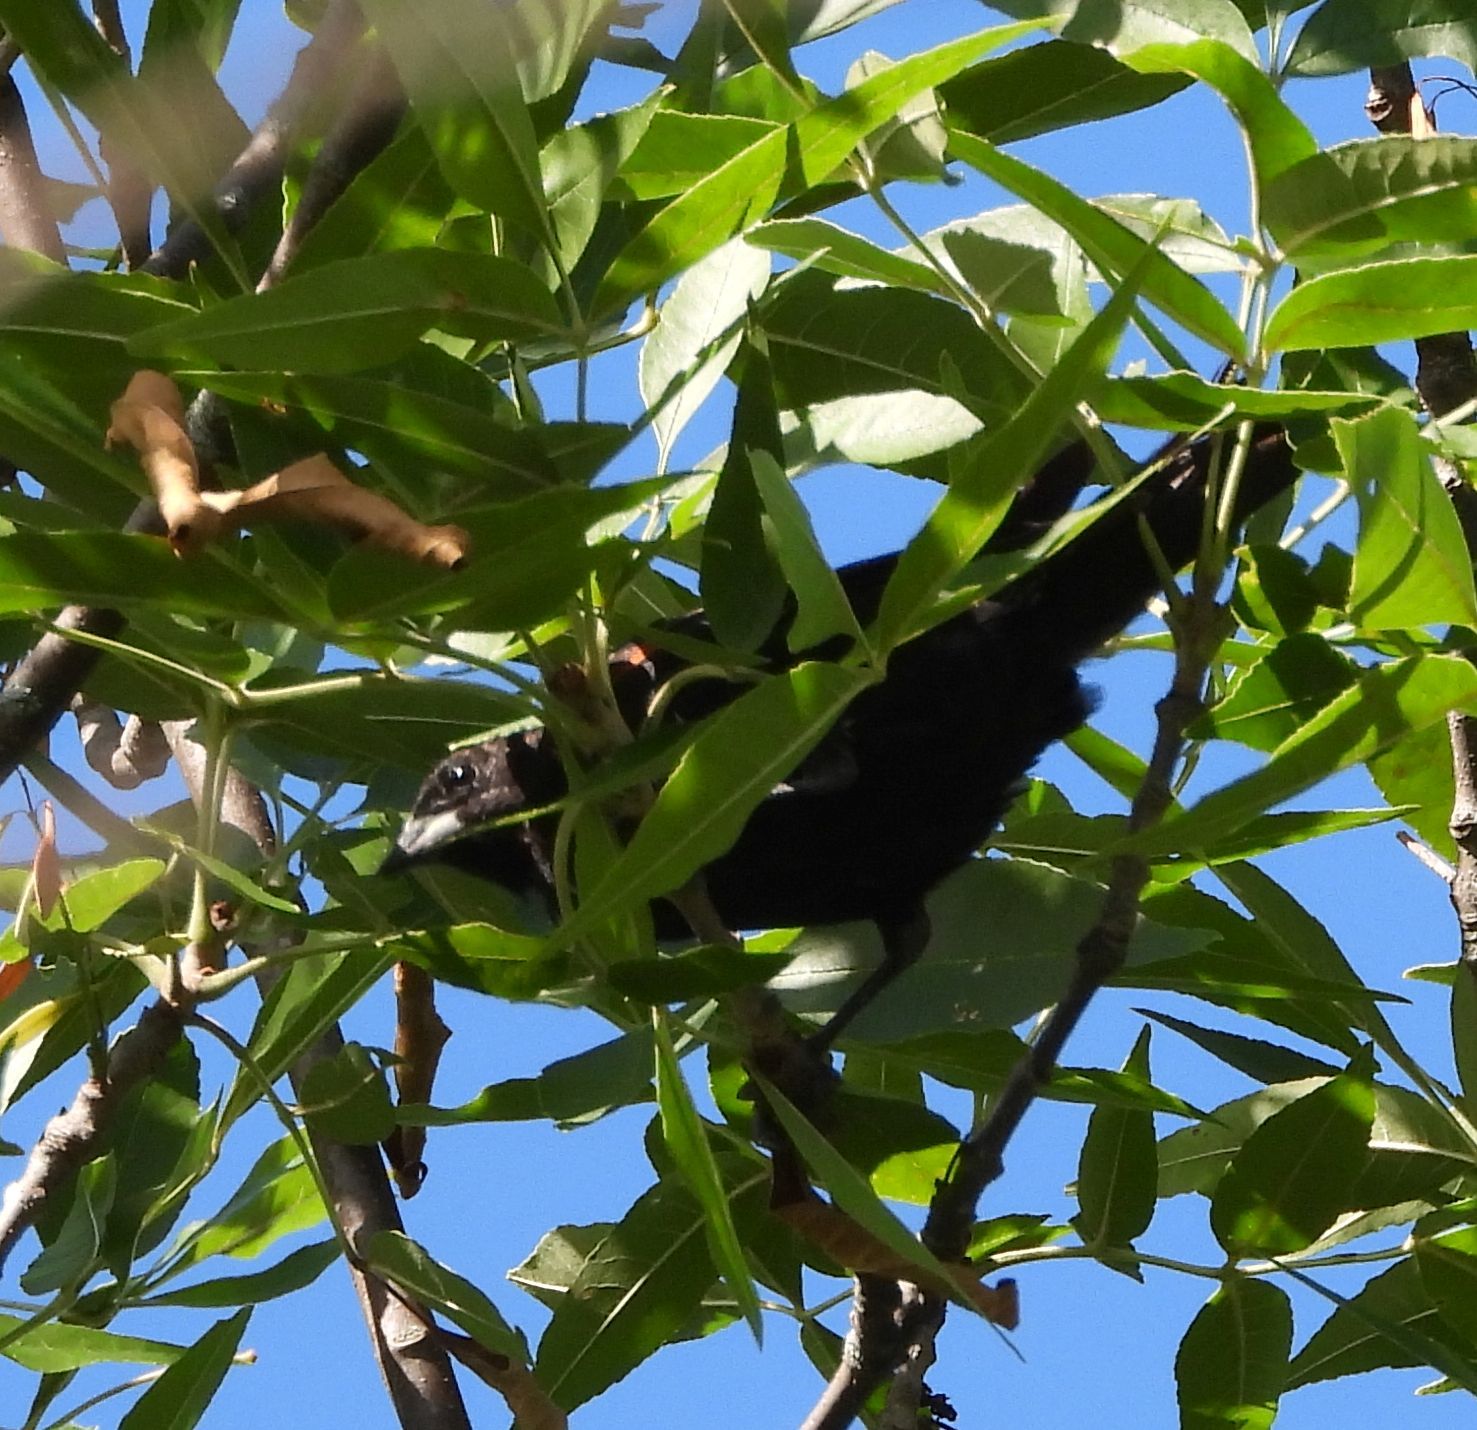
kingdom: Animalia
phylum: Chordata
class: Aves
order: Passeriformes
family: Icteridae
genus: Quiscalus
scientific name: Quiscalus quiscula
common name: Common grackle
